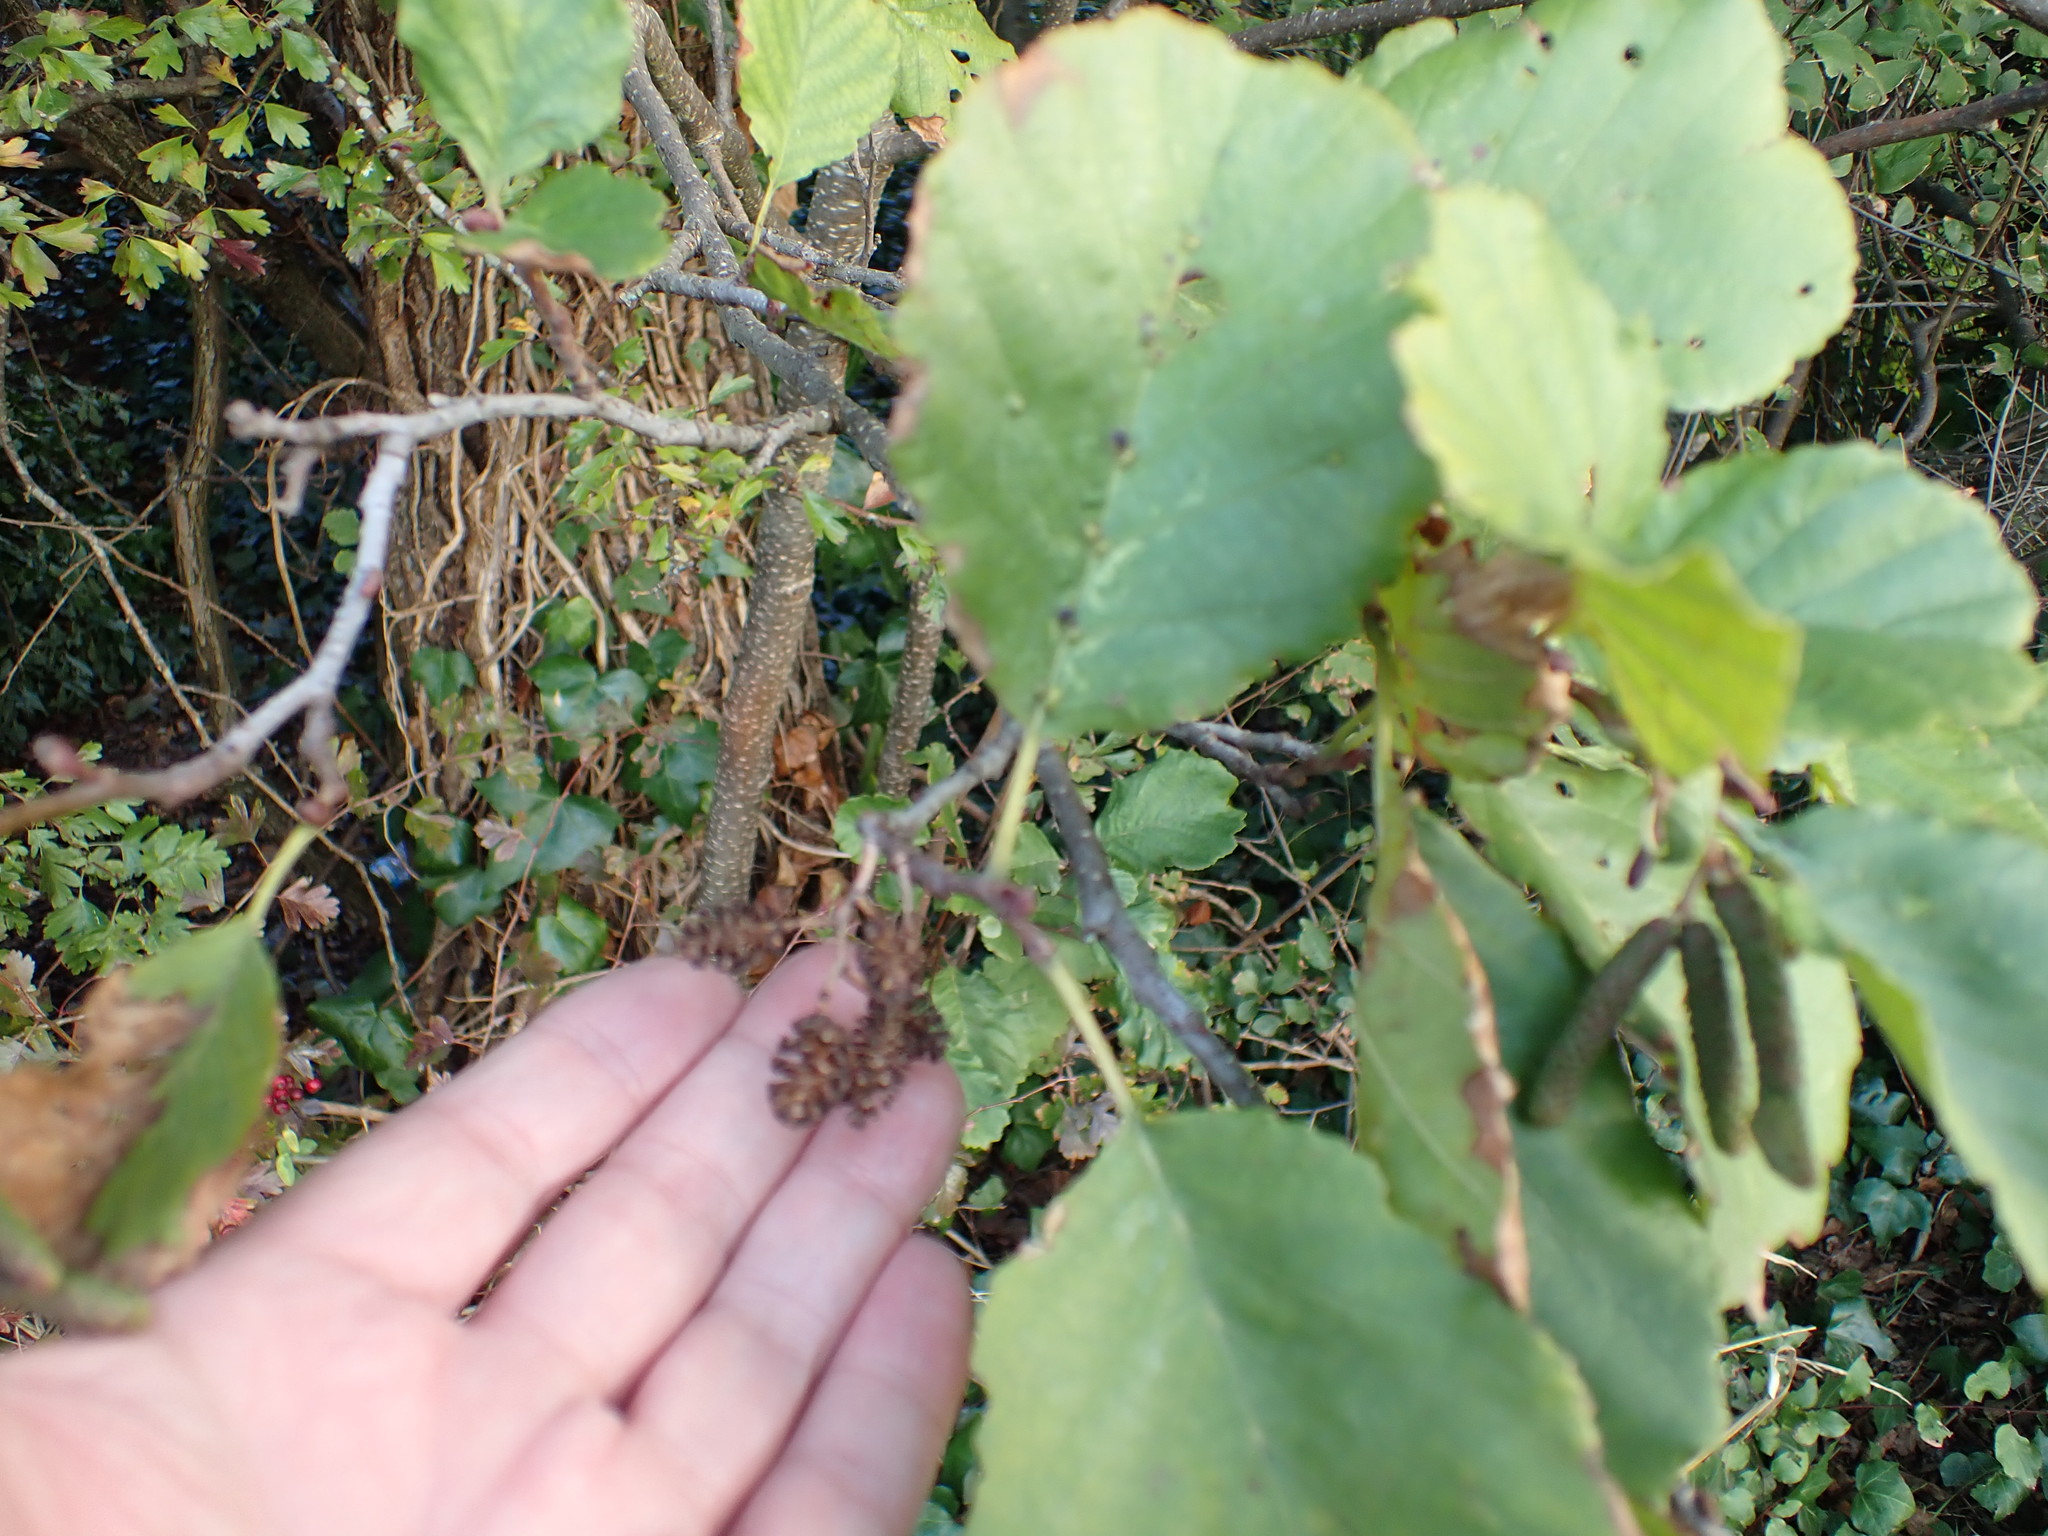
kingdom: Plantae
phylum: Tracheophyta
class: Magnoliopsida
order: Fagales
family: Betulaceae
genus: Alnus
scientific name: Alnus glutinosa
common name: Black alder
